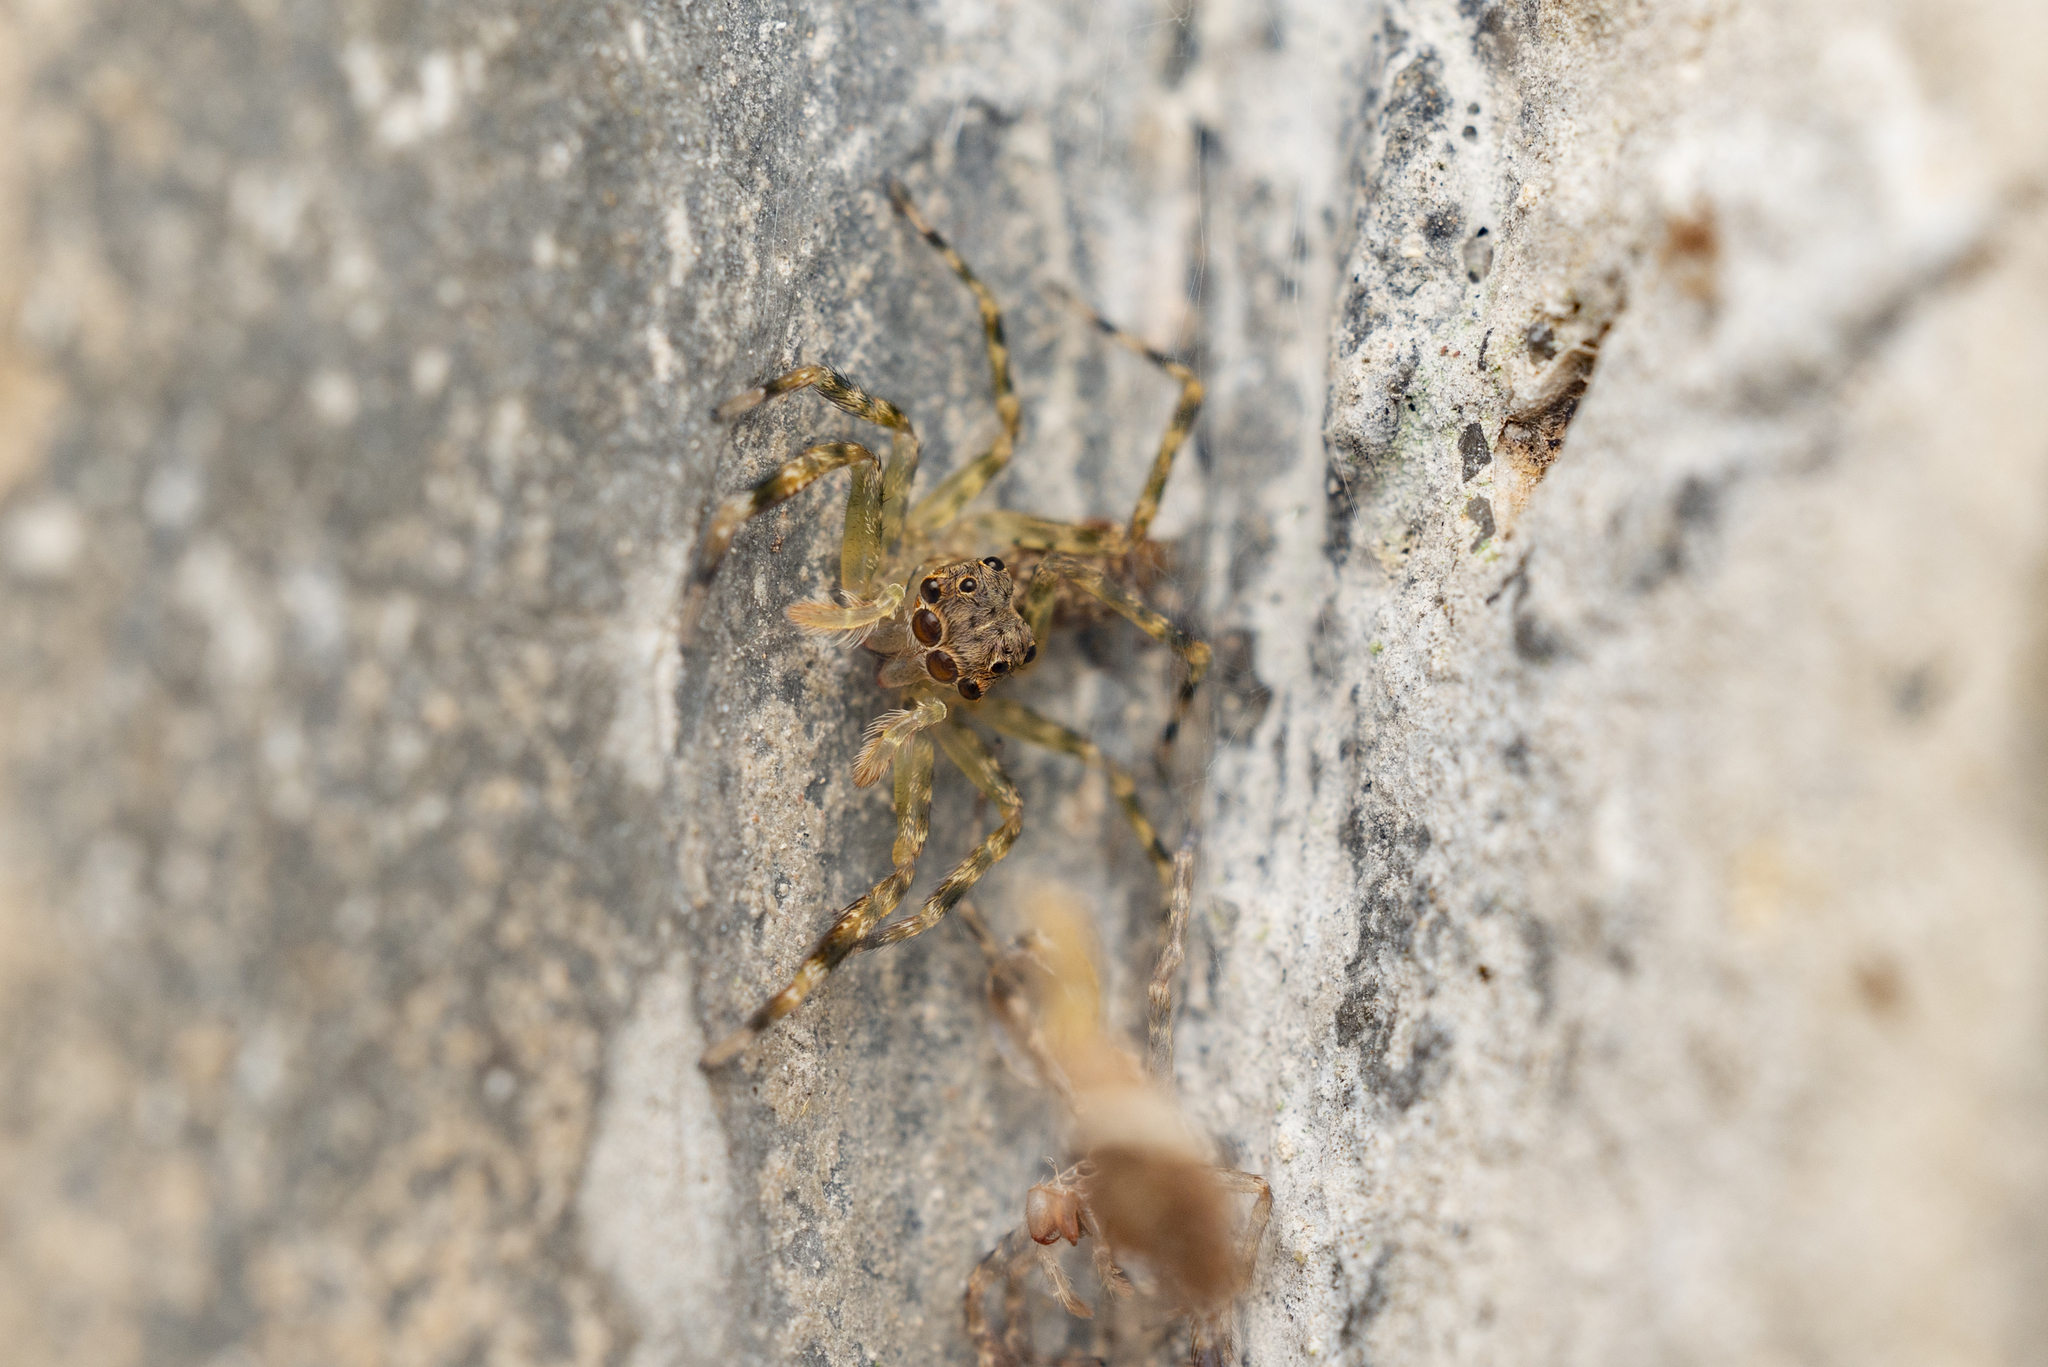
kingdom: Animalia
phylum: Arthropoda
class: Arachnida
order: Araneae
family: Salticidae
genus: Spartaeus
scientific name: Spartaeus zhangi
